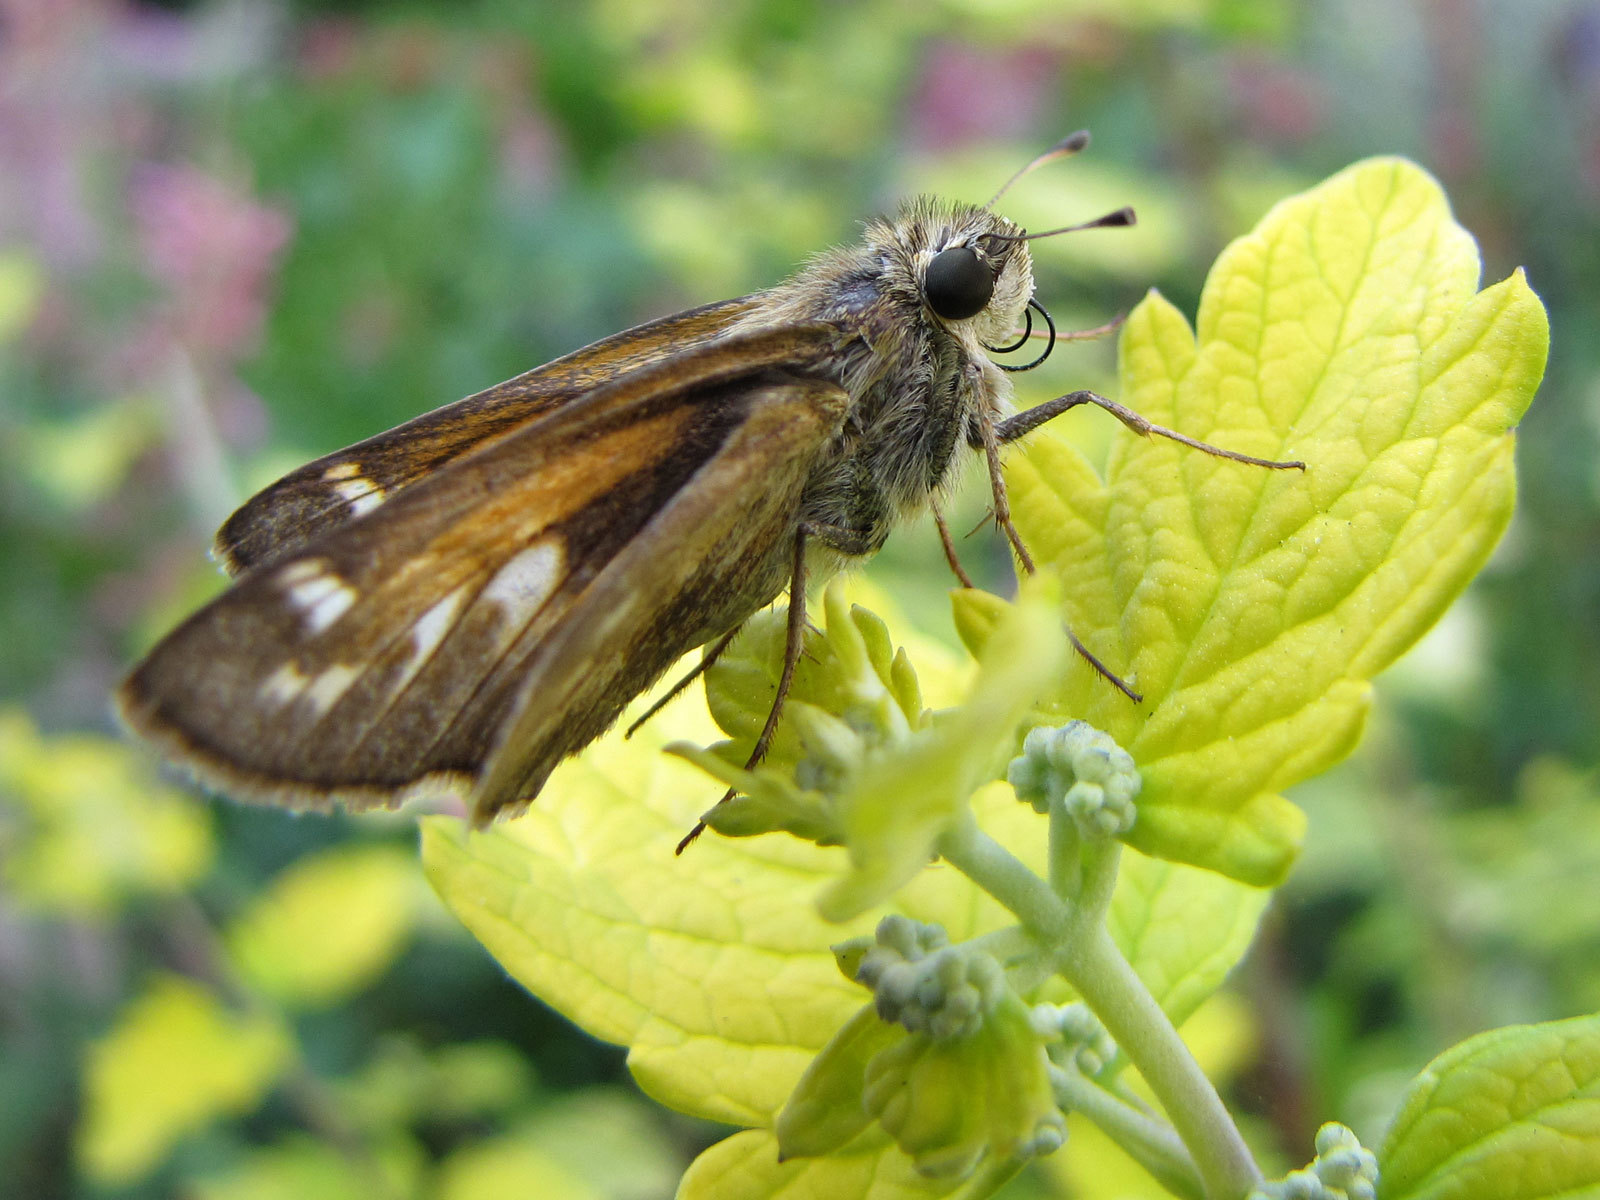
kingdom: Animalia
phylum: Arthropoda
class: Insecta
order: Lepidoptera
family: Hesperiidae
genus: Atalopedes
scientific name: Atalopedes
